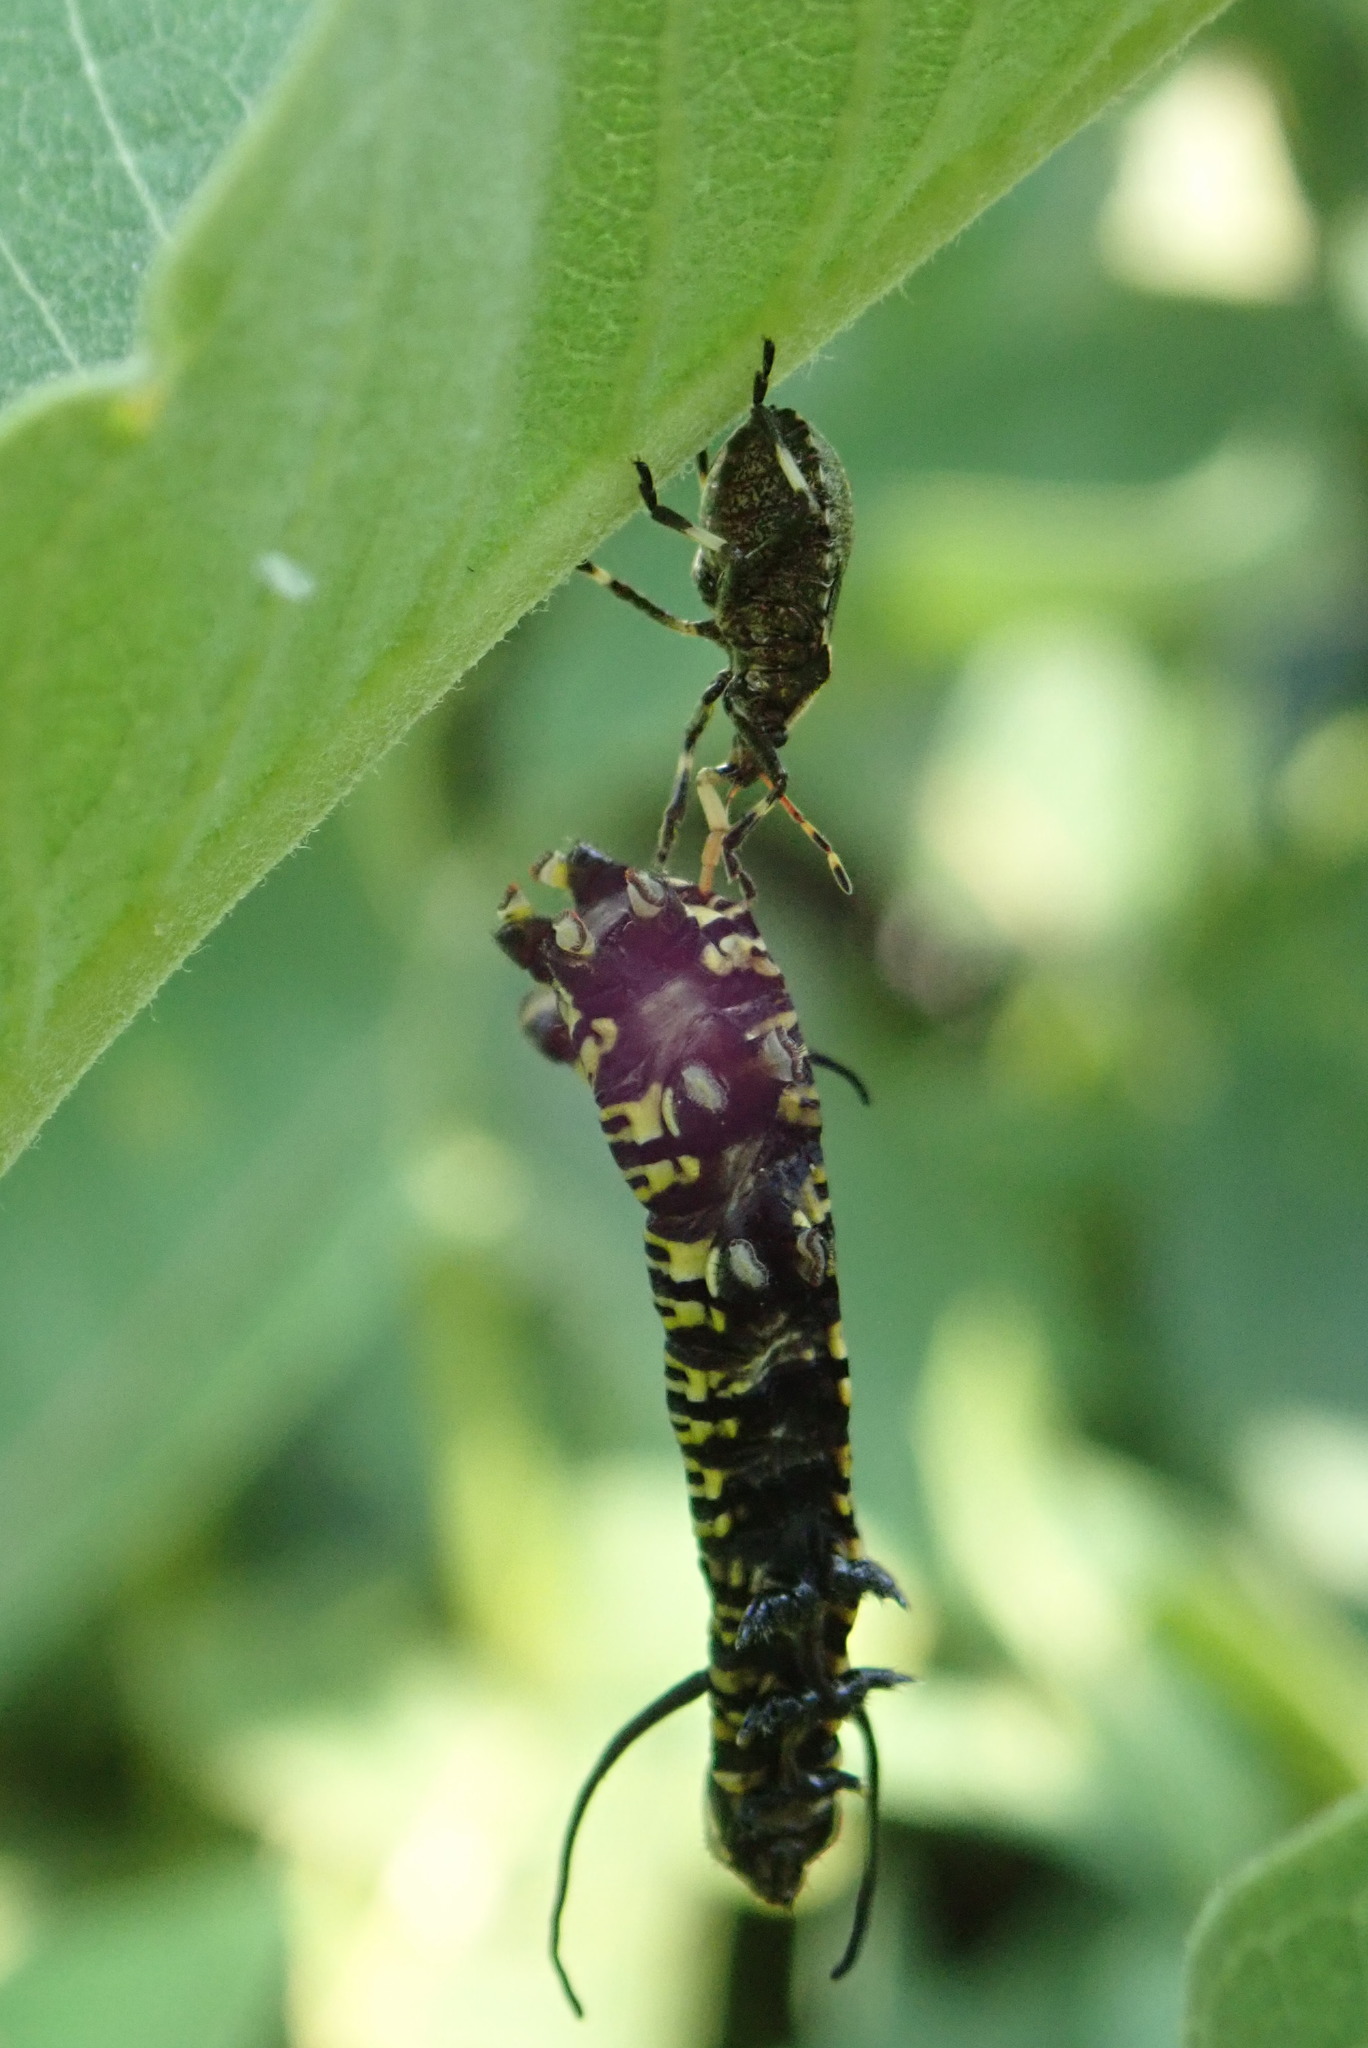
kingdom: Animalia
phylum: Arthropoda
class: Insecta
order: Hemiptera
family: Pentatomidae
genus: Picromerus
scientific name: Picromerus bidens
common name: Spiked shieldbug
